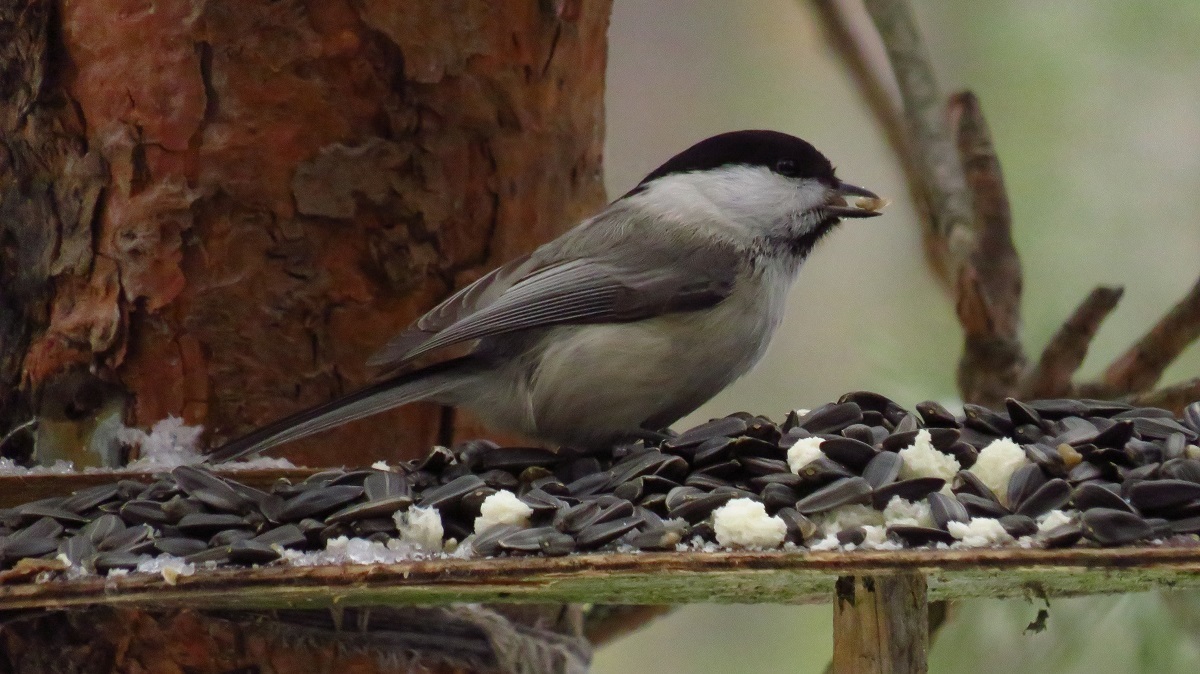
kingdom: Animalia
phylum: Chordata
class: Aves
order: Passeriformes
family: Paridae
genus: Poecile
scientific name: Poecile montanus
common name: Willow tit
